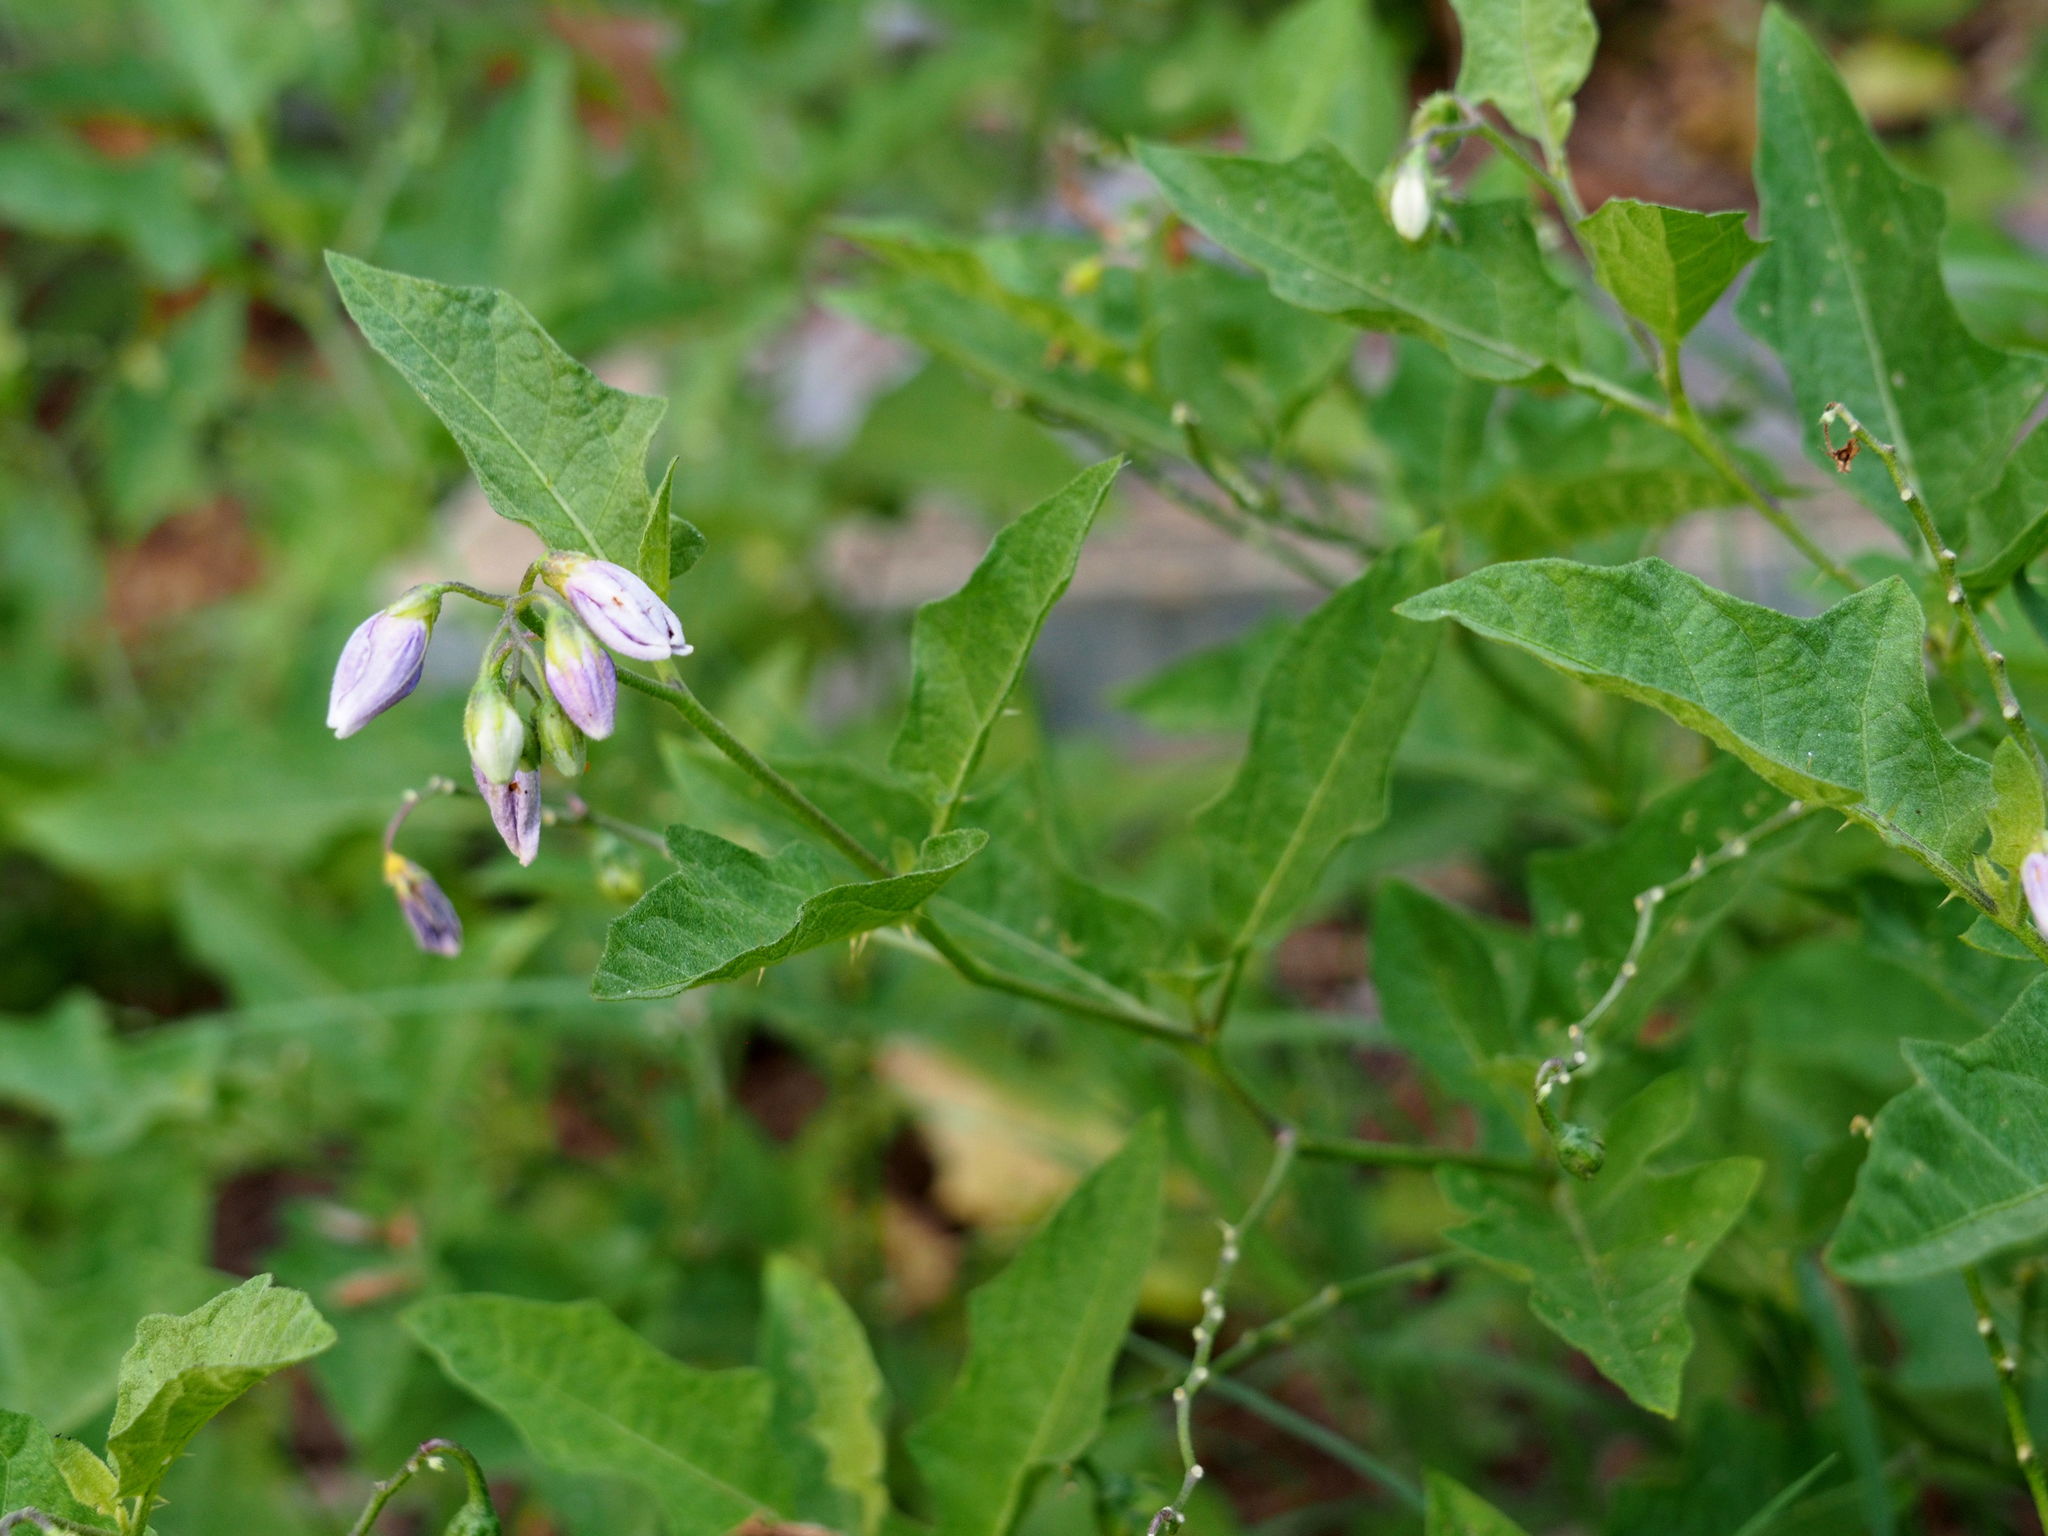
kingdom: Plantae
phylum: Tracheophyta
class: Magnoliopsida
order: Solanales
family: Solanaceae
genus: Solanum
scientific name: Solanum carolinense
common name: Horse-nettle
